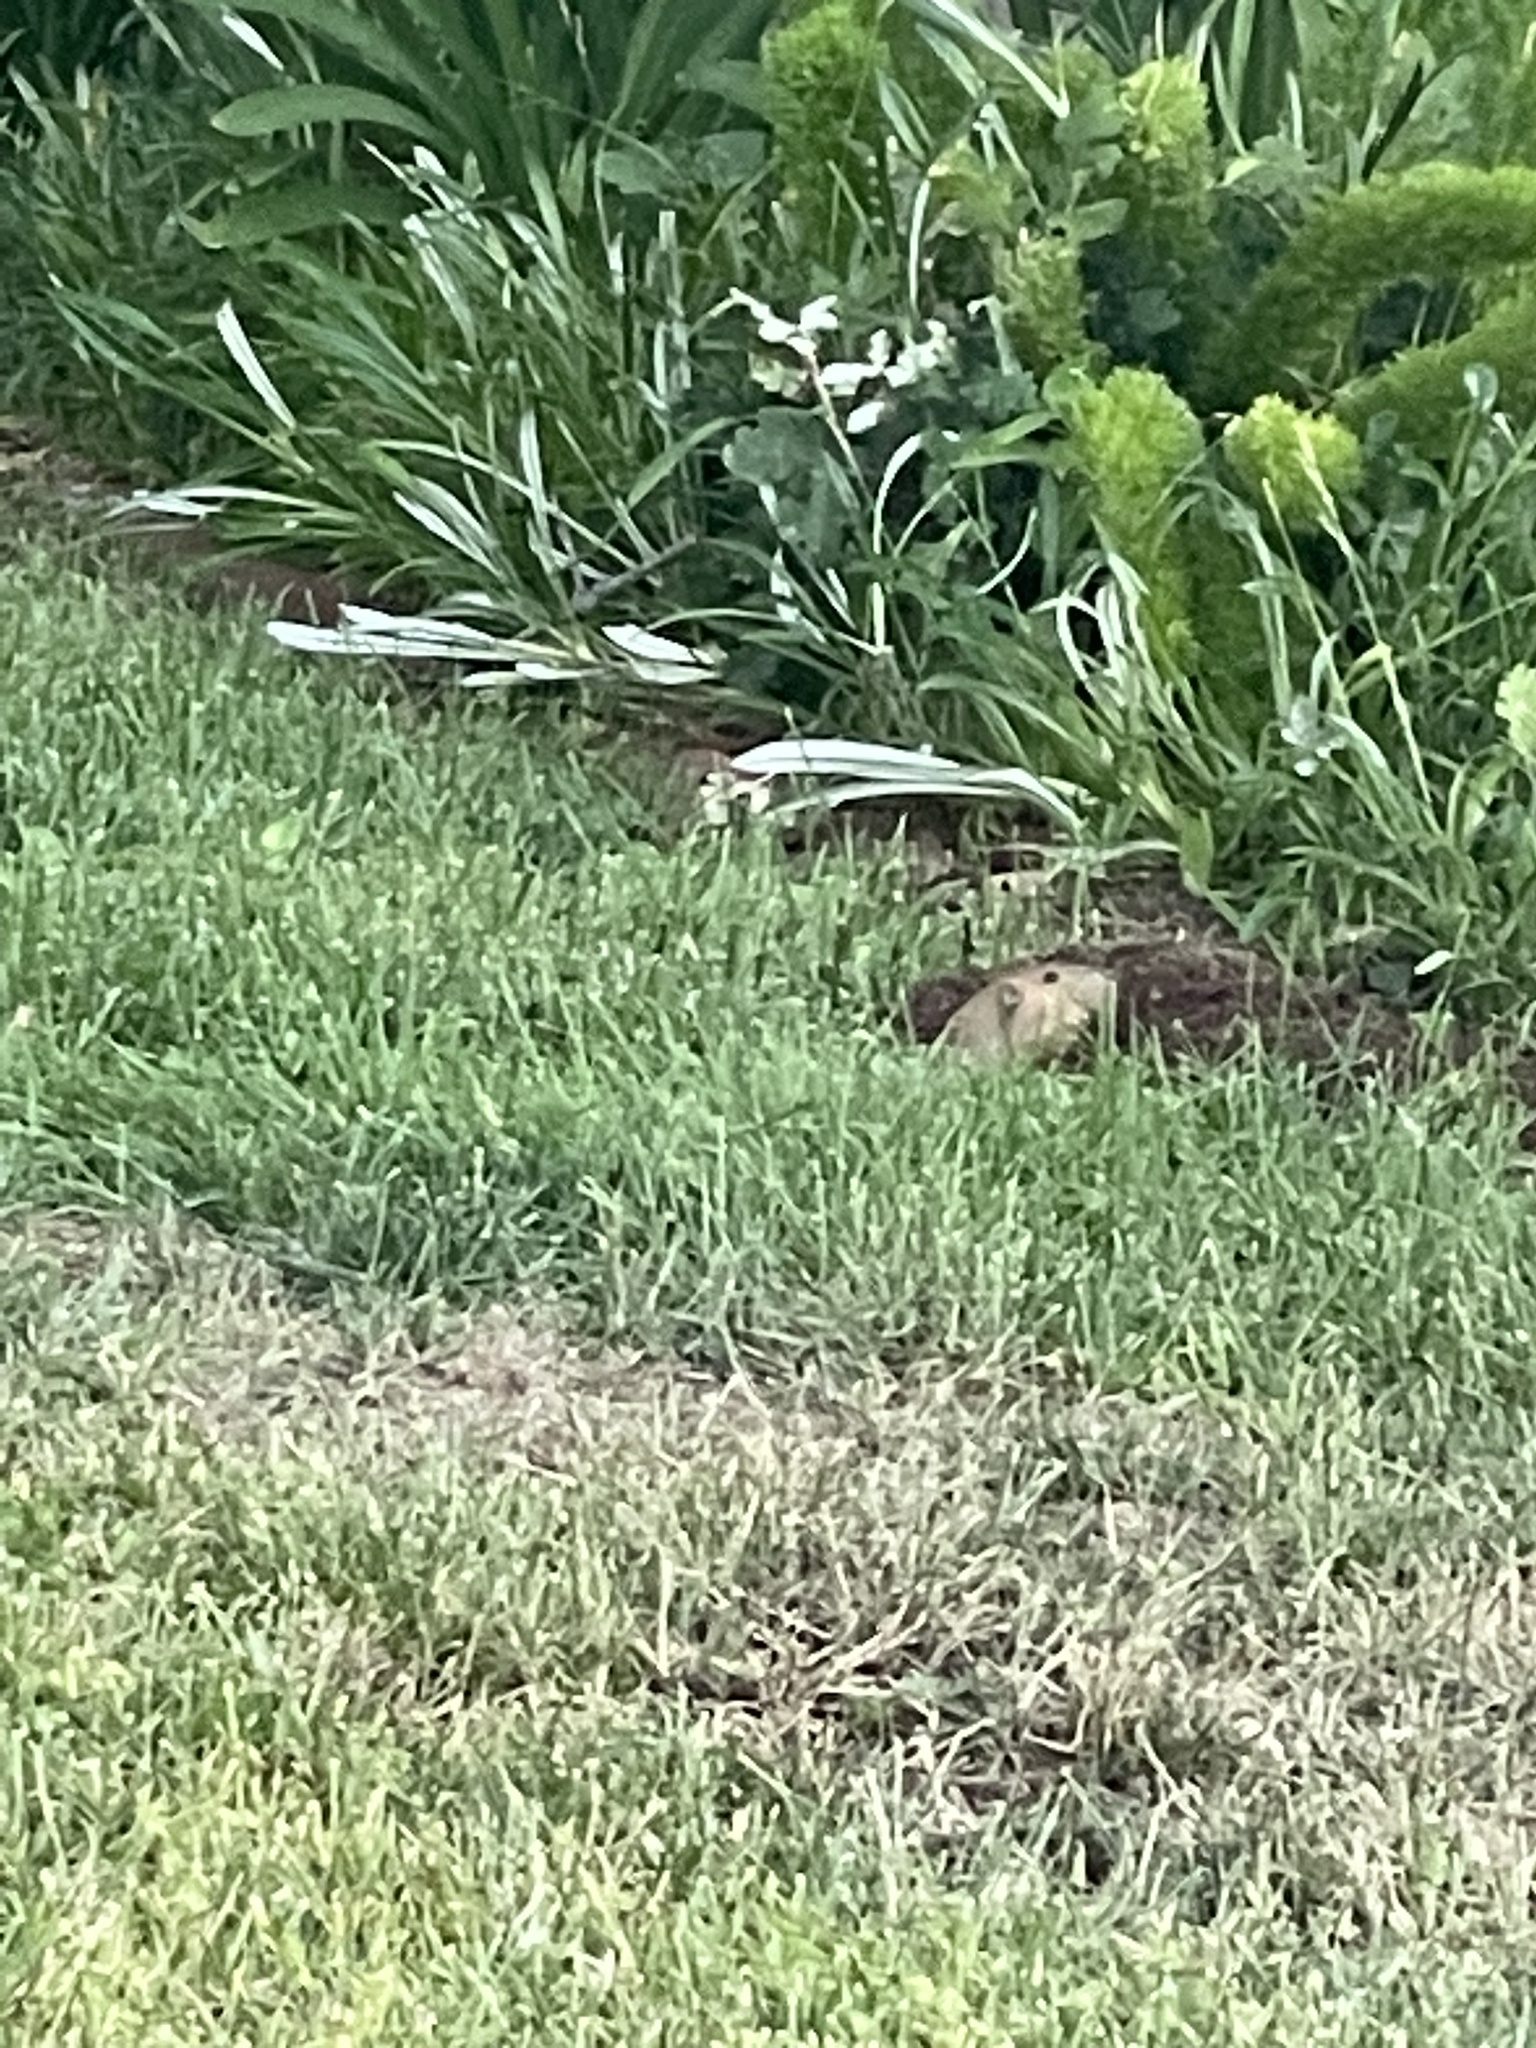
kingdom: Animalia
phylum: Chordata
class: Mammalia
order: Rodentia
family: Geomyidae
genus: Thomomys
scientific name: Thomomys bottae
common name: Botta's pocket gopher
